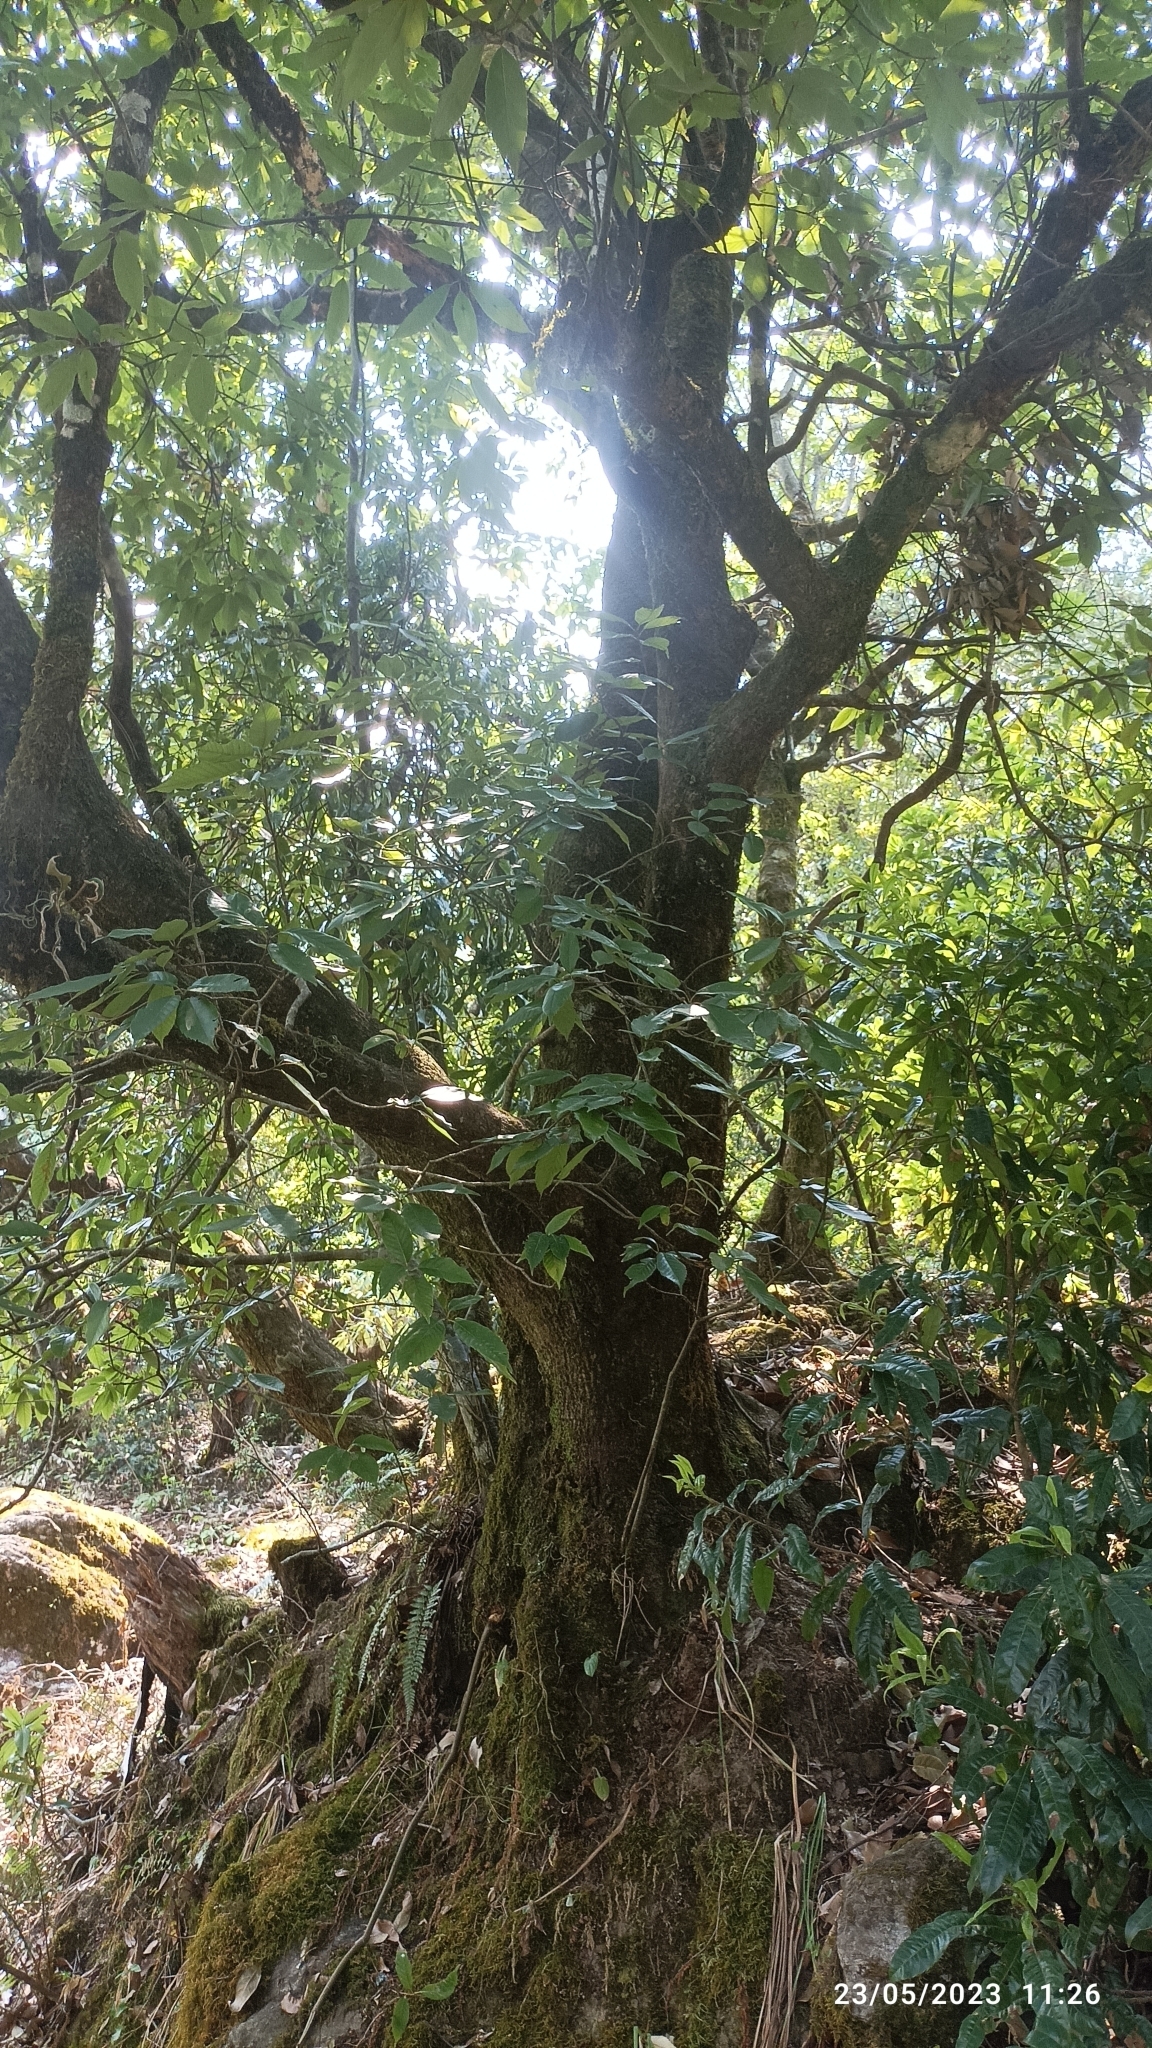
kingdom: Plantae
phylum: Tracheophyta
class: Magnoliopsida
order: Fagales
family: Fagaceae
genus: Quercus
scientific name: Quercus glauca
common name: Ring-cup oak
